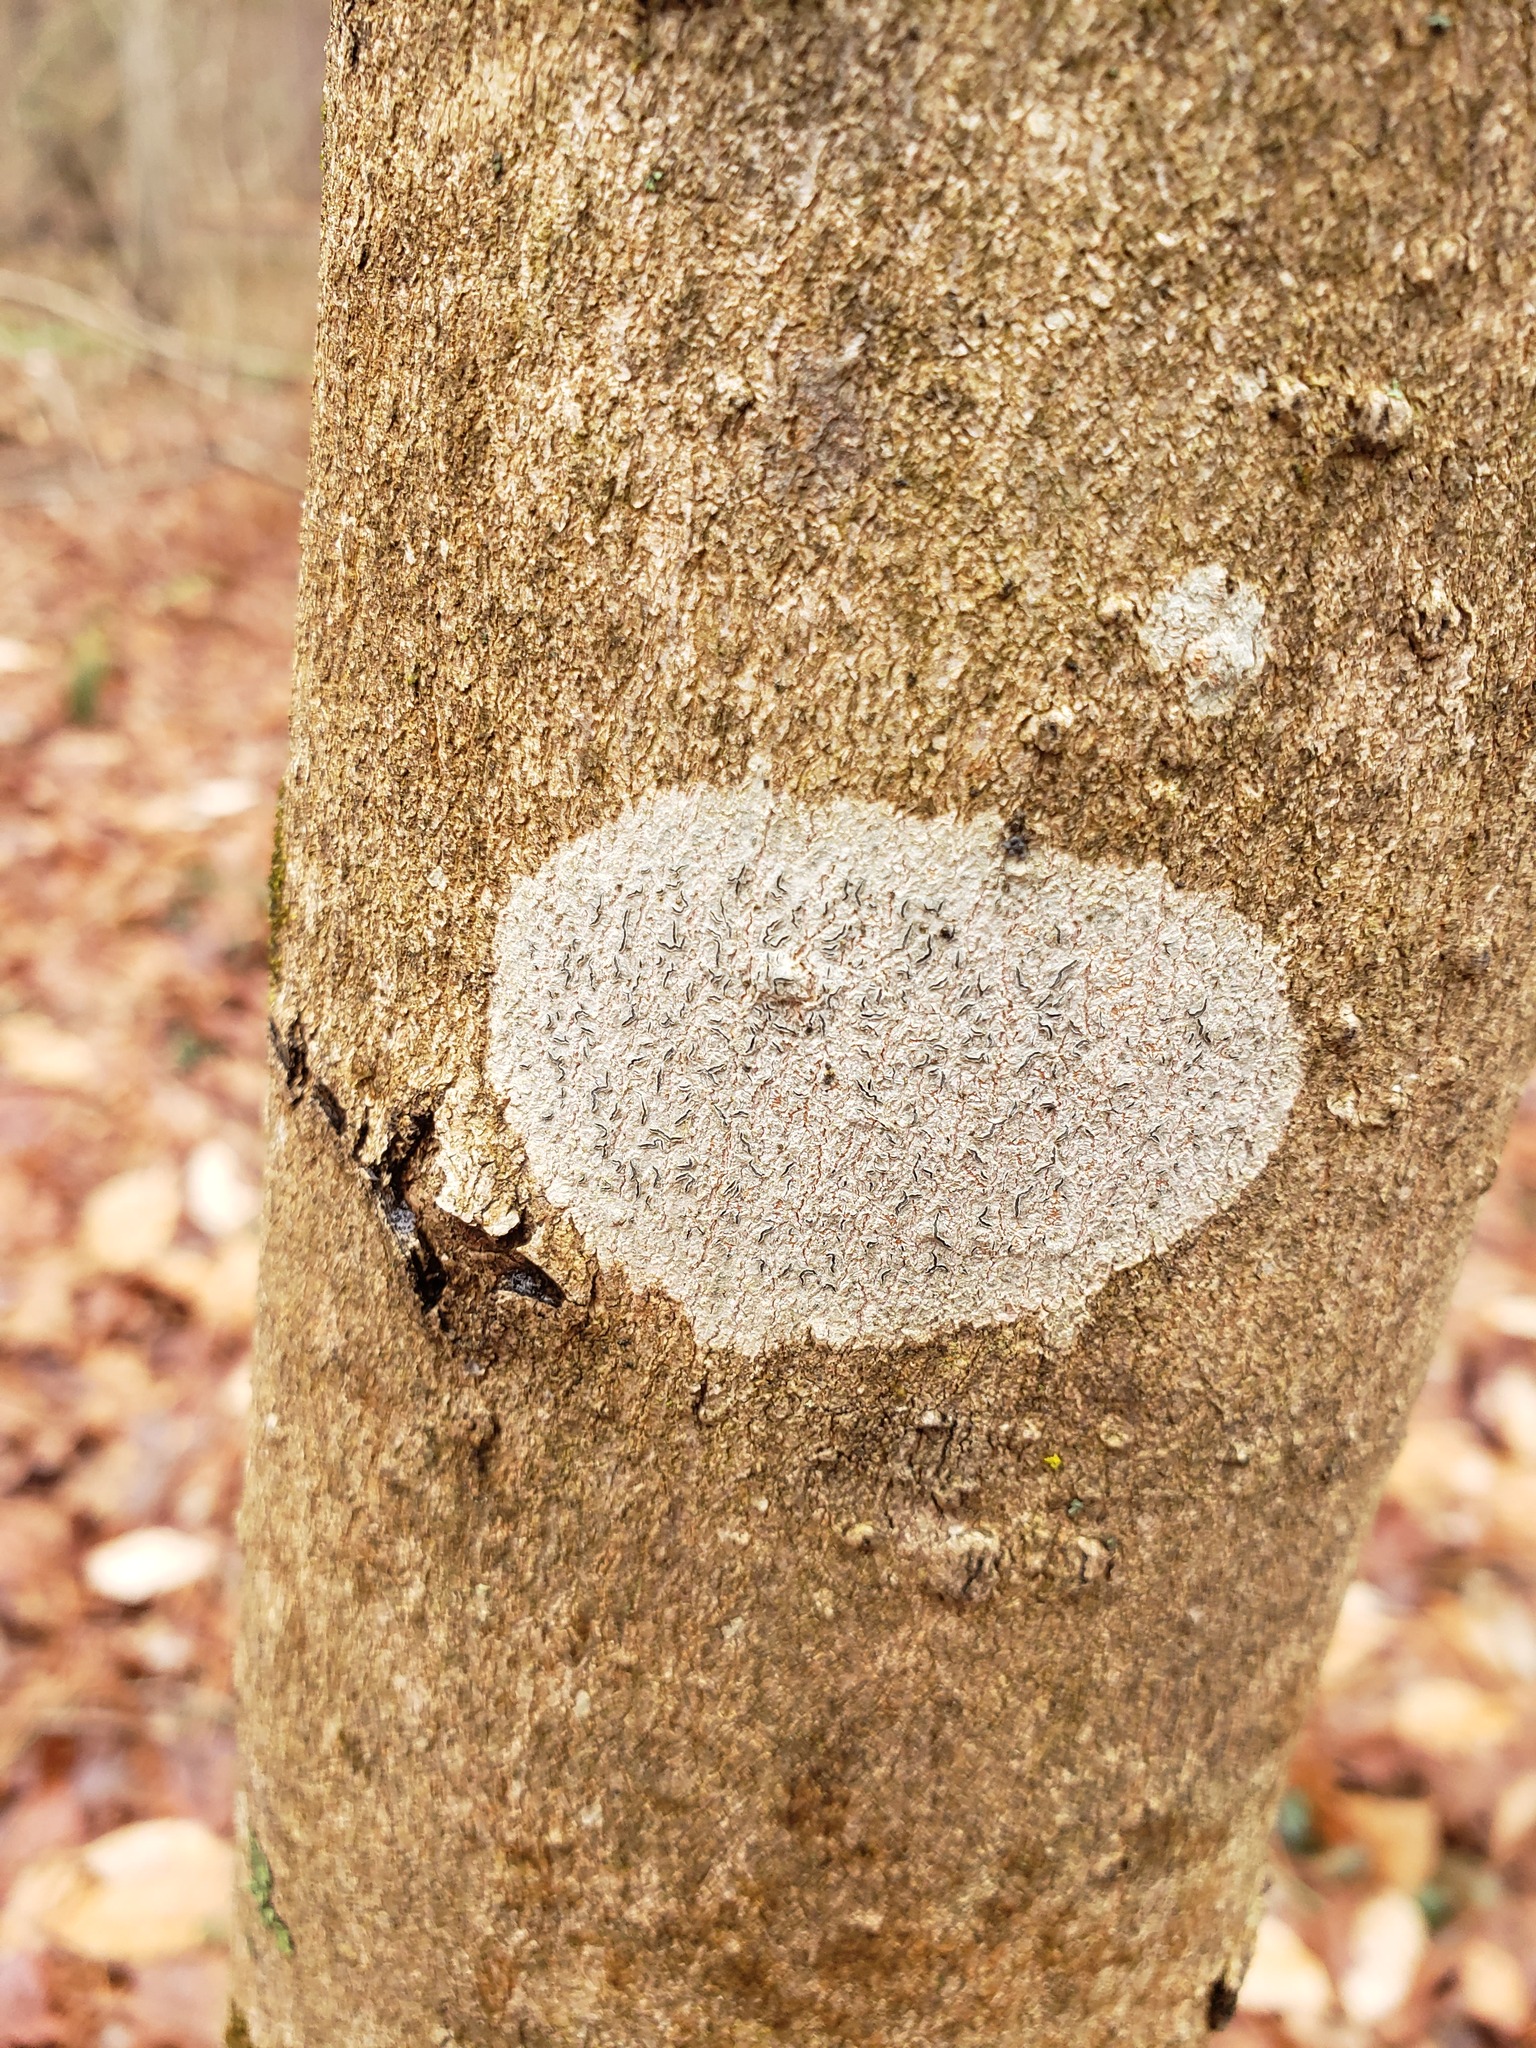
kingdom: Fungi
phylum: Ascomycota
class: Lecanoromycetes
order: Ostropales
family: Graphidaceae
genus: Graphis
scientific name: Graphis scripta
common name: Script lichen
